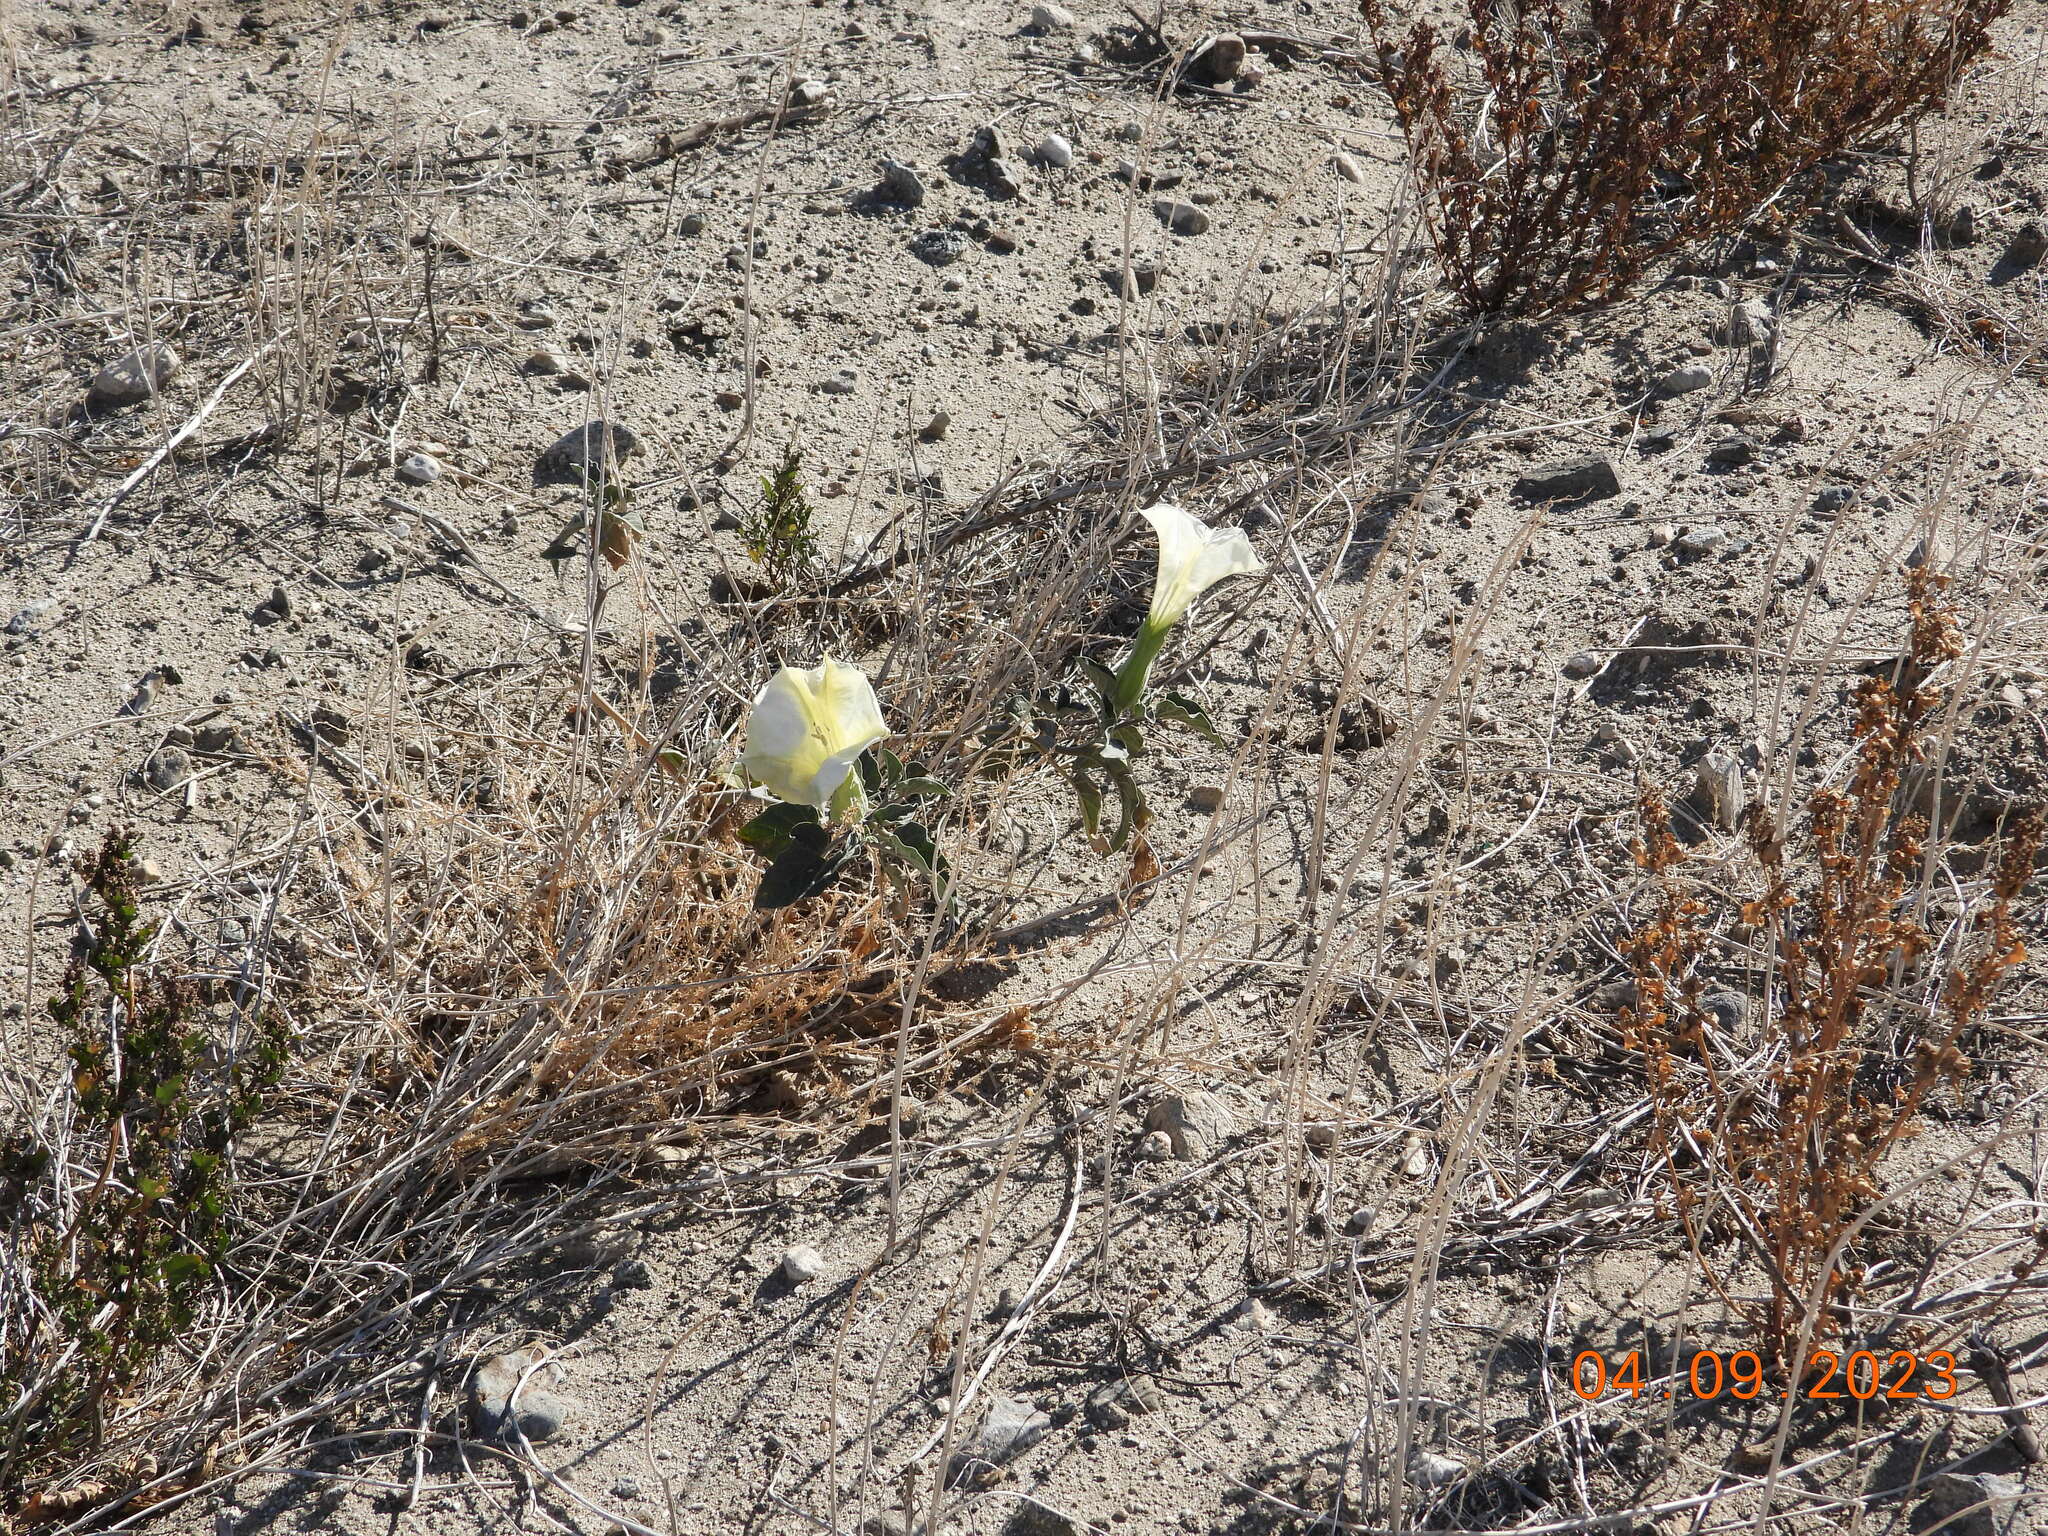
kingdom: Plantae
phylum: Tracheophyta
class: Magnoliopsida
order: Solanales
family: Solanaceae
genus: Datura
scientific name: Datura wrightii
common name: Sacred thorn-apple
